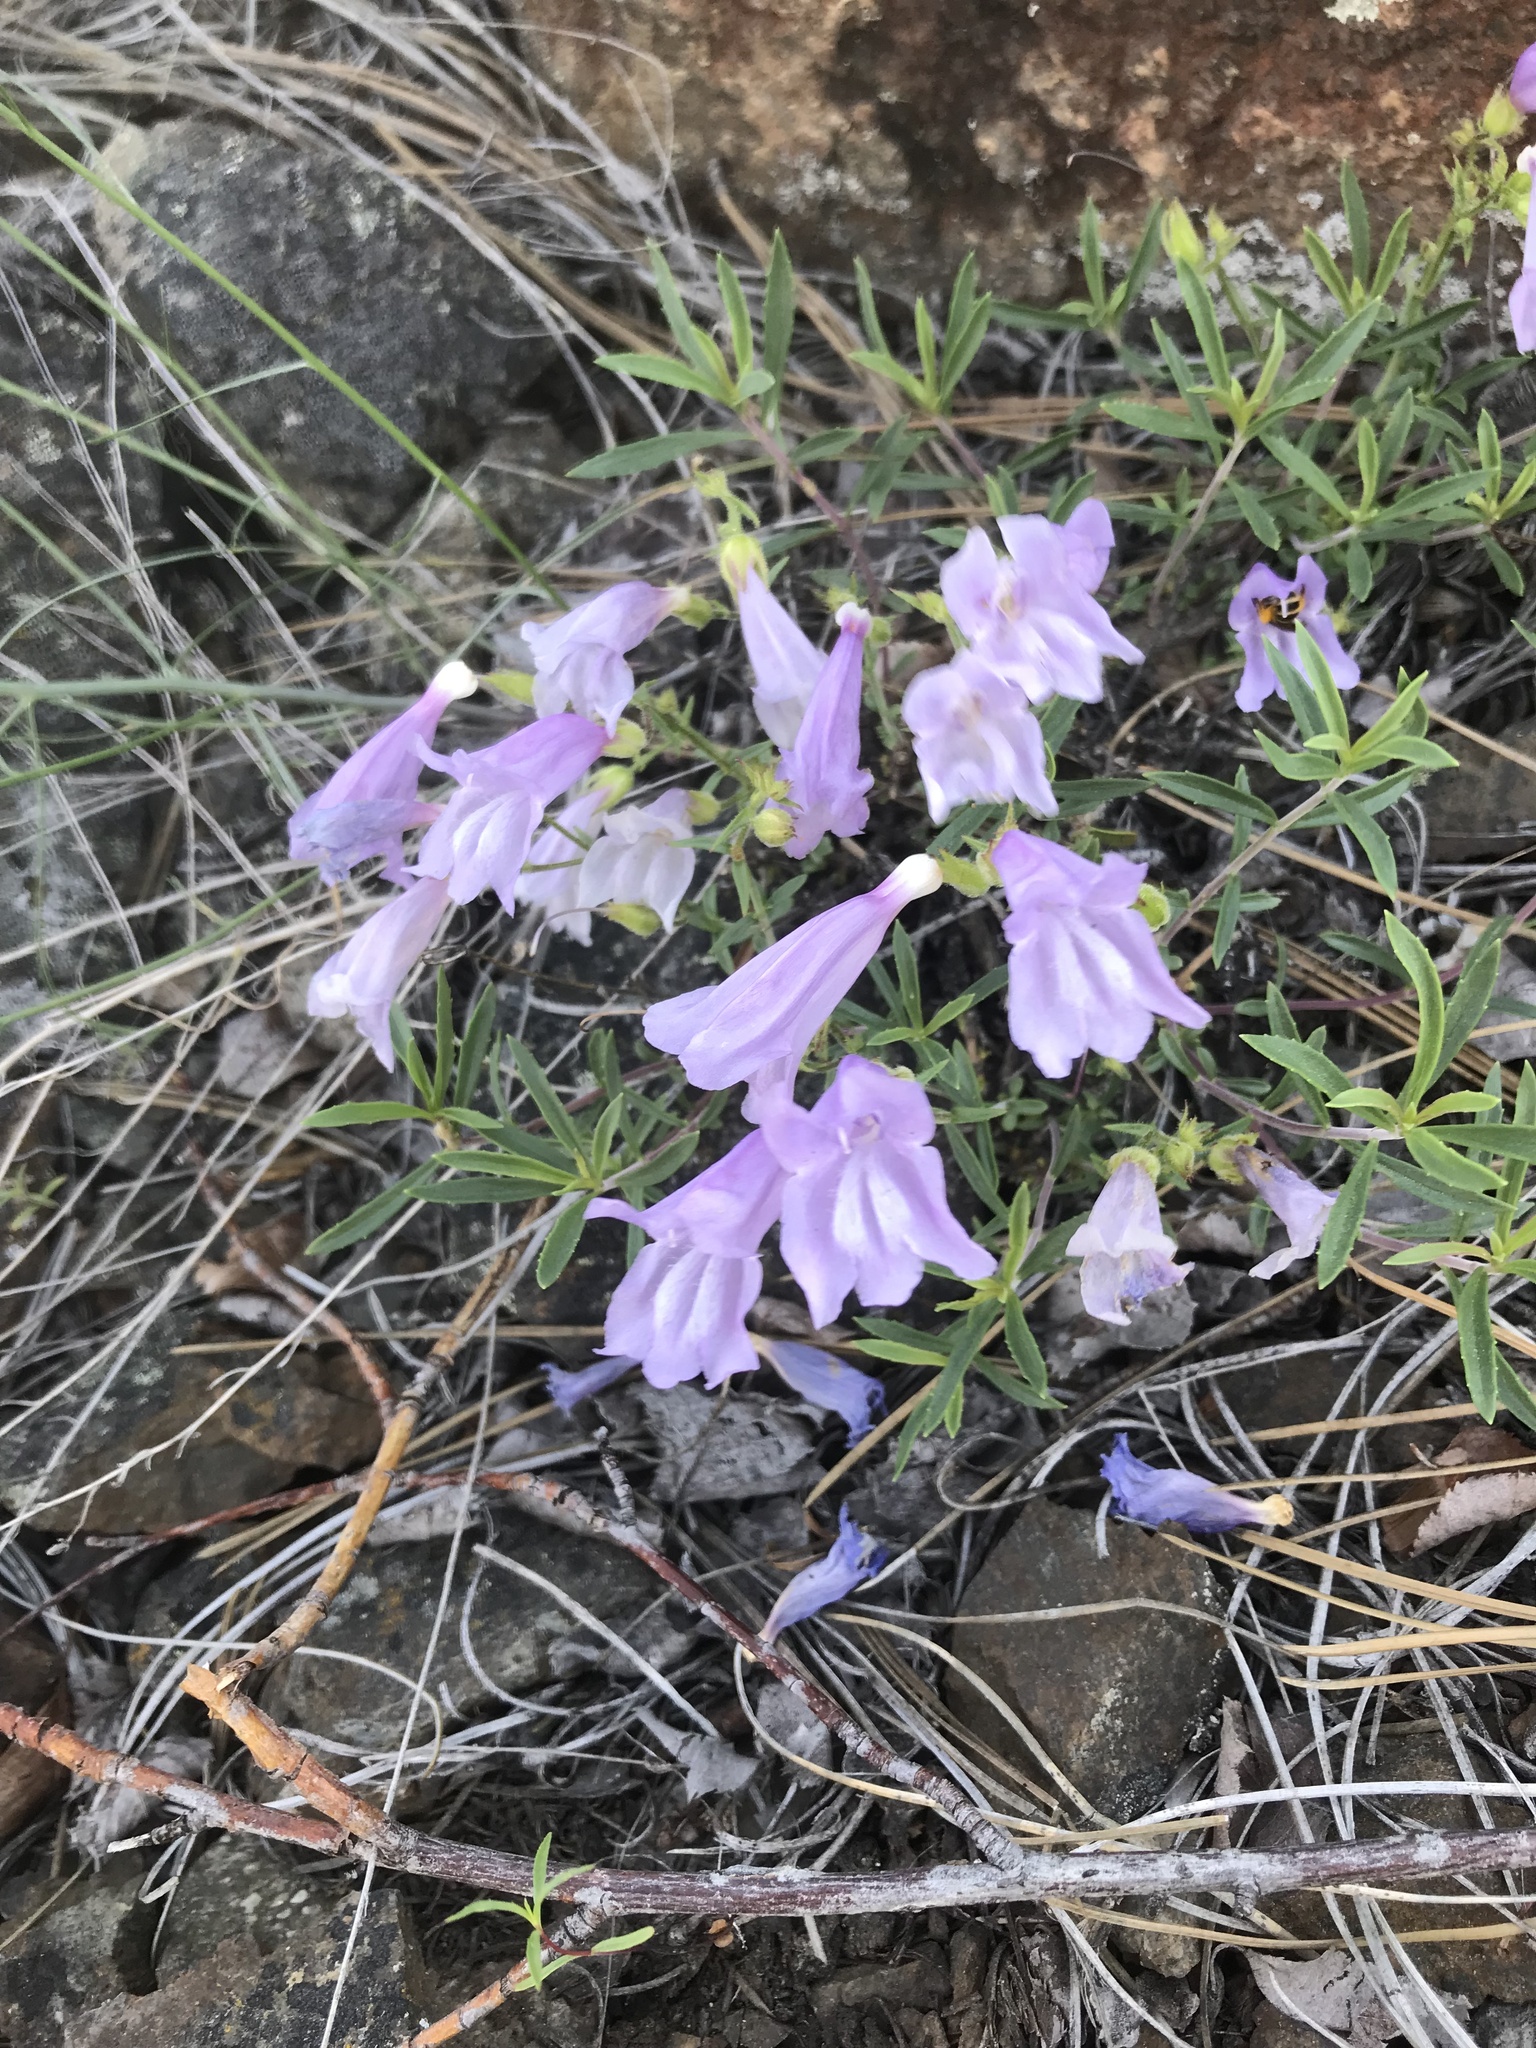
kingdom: Plantae
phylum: Tracheophyta
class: Magnoliopsida
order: Lamiales
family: Plantaginaceae
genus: Penstemon
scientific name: Penstemon fruticosus
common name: Bush penstemon
